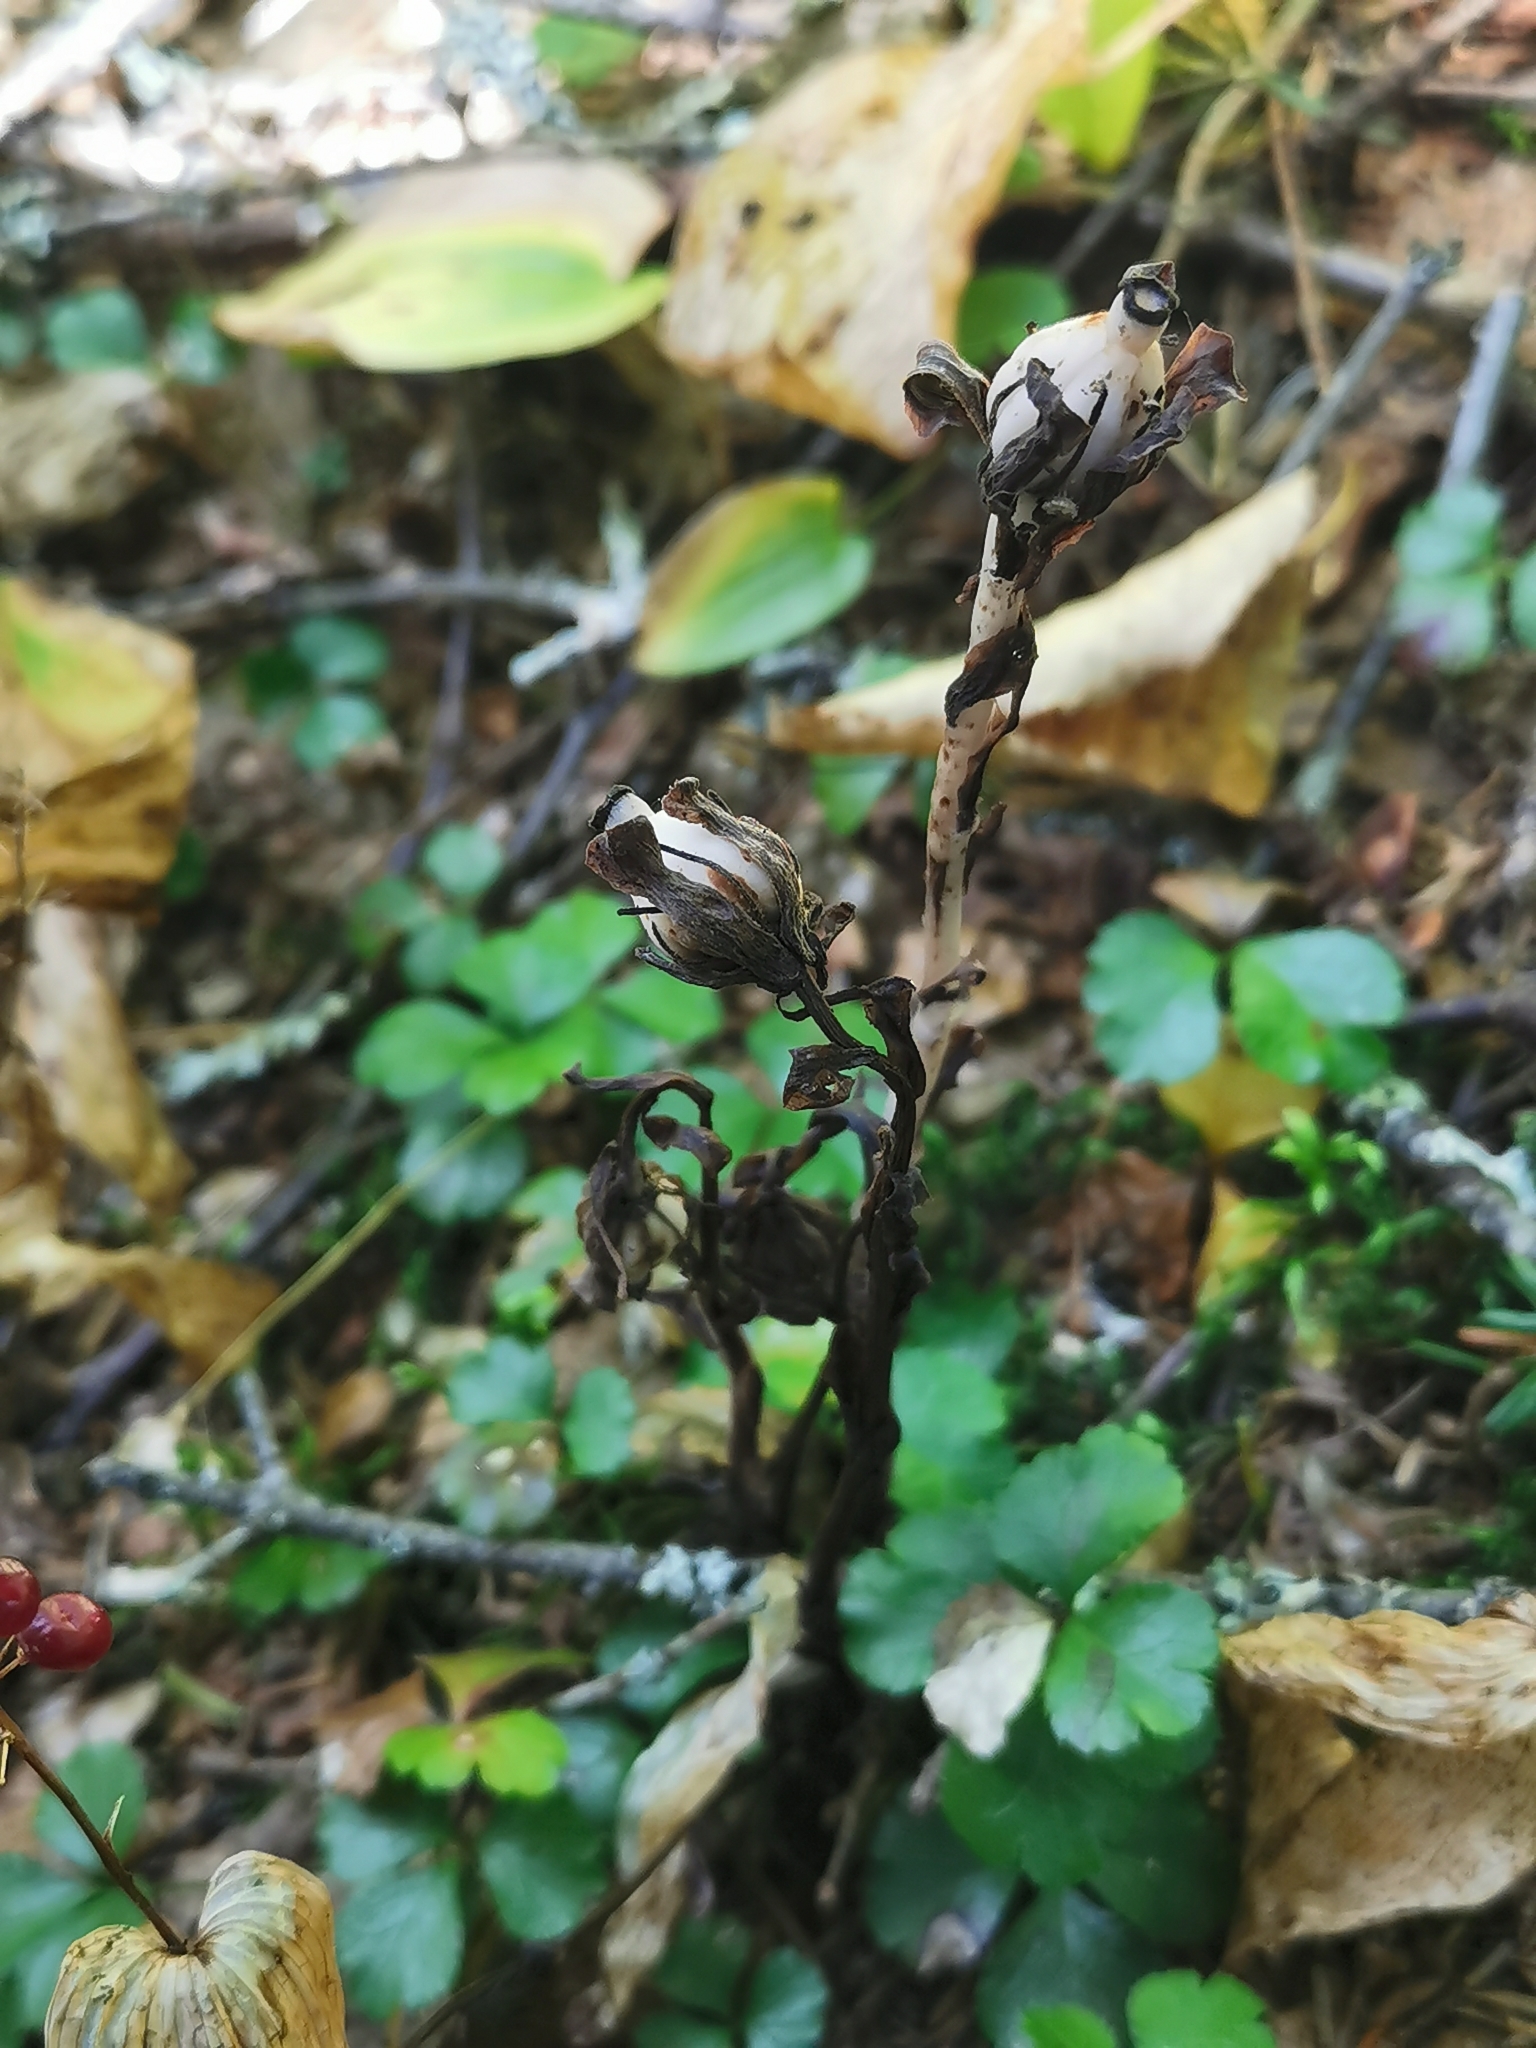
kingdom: Plantae
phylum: Tracheophyta
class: Magnoliopsida
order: Ericales
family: Ericaceae
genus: Monotropa
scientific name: Monotropa uniflora
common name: Convulsion root
